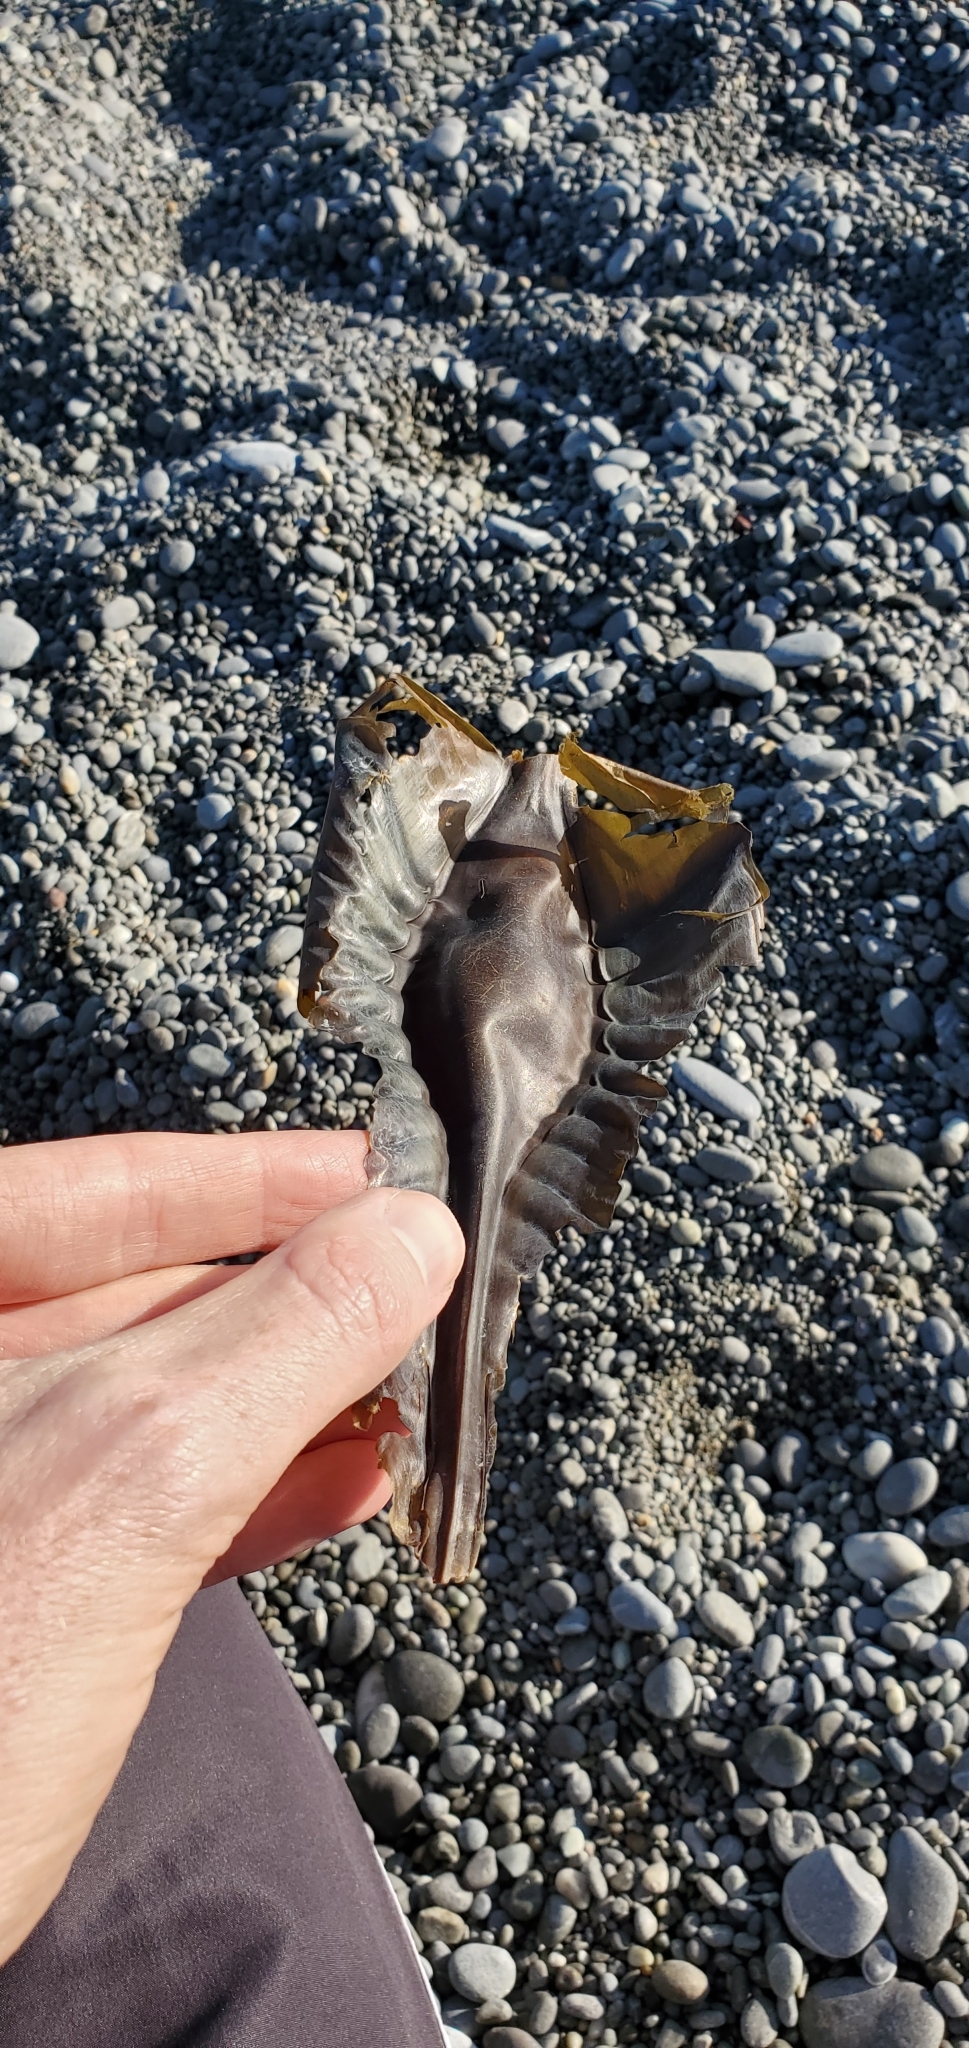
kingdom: Animalia
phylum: Chordata
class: Holocephali
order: Chimaeriformes
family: Callorhinchidae
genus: Callorhinchus
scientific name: Callorhinchus milii
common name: Elephant fish
